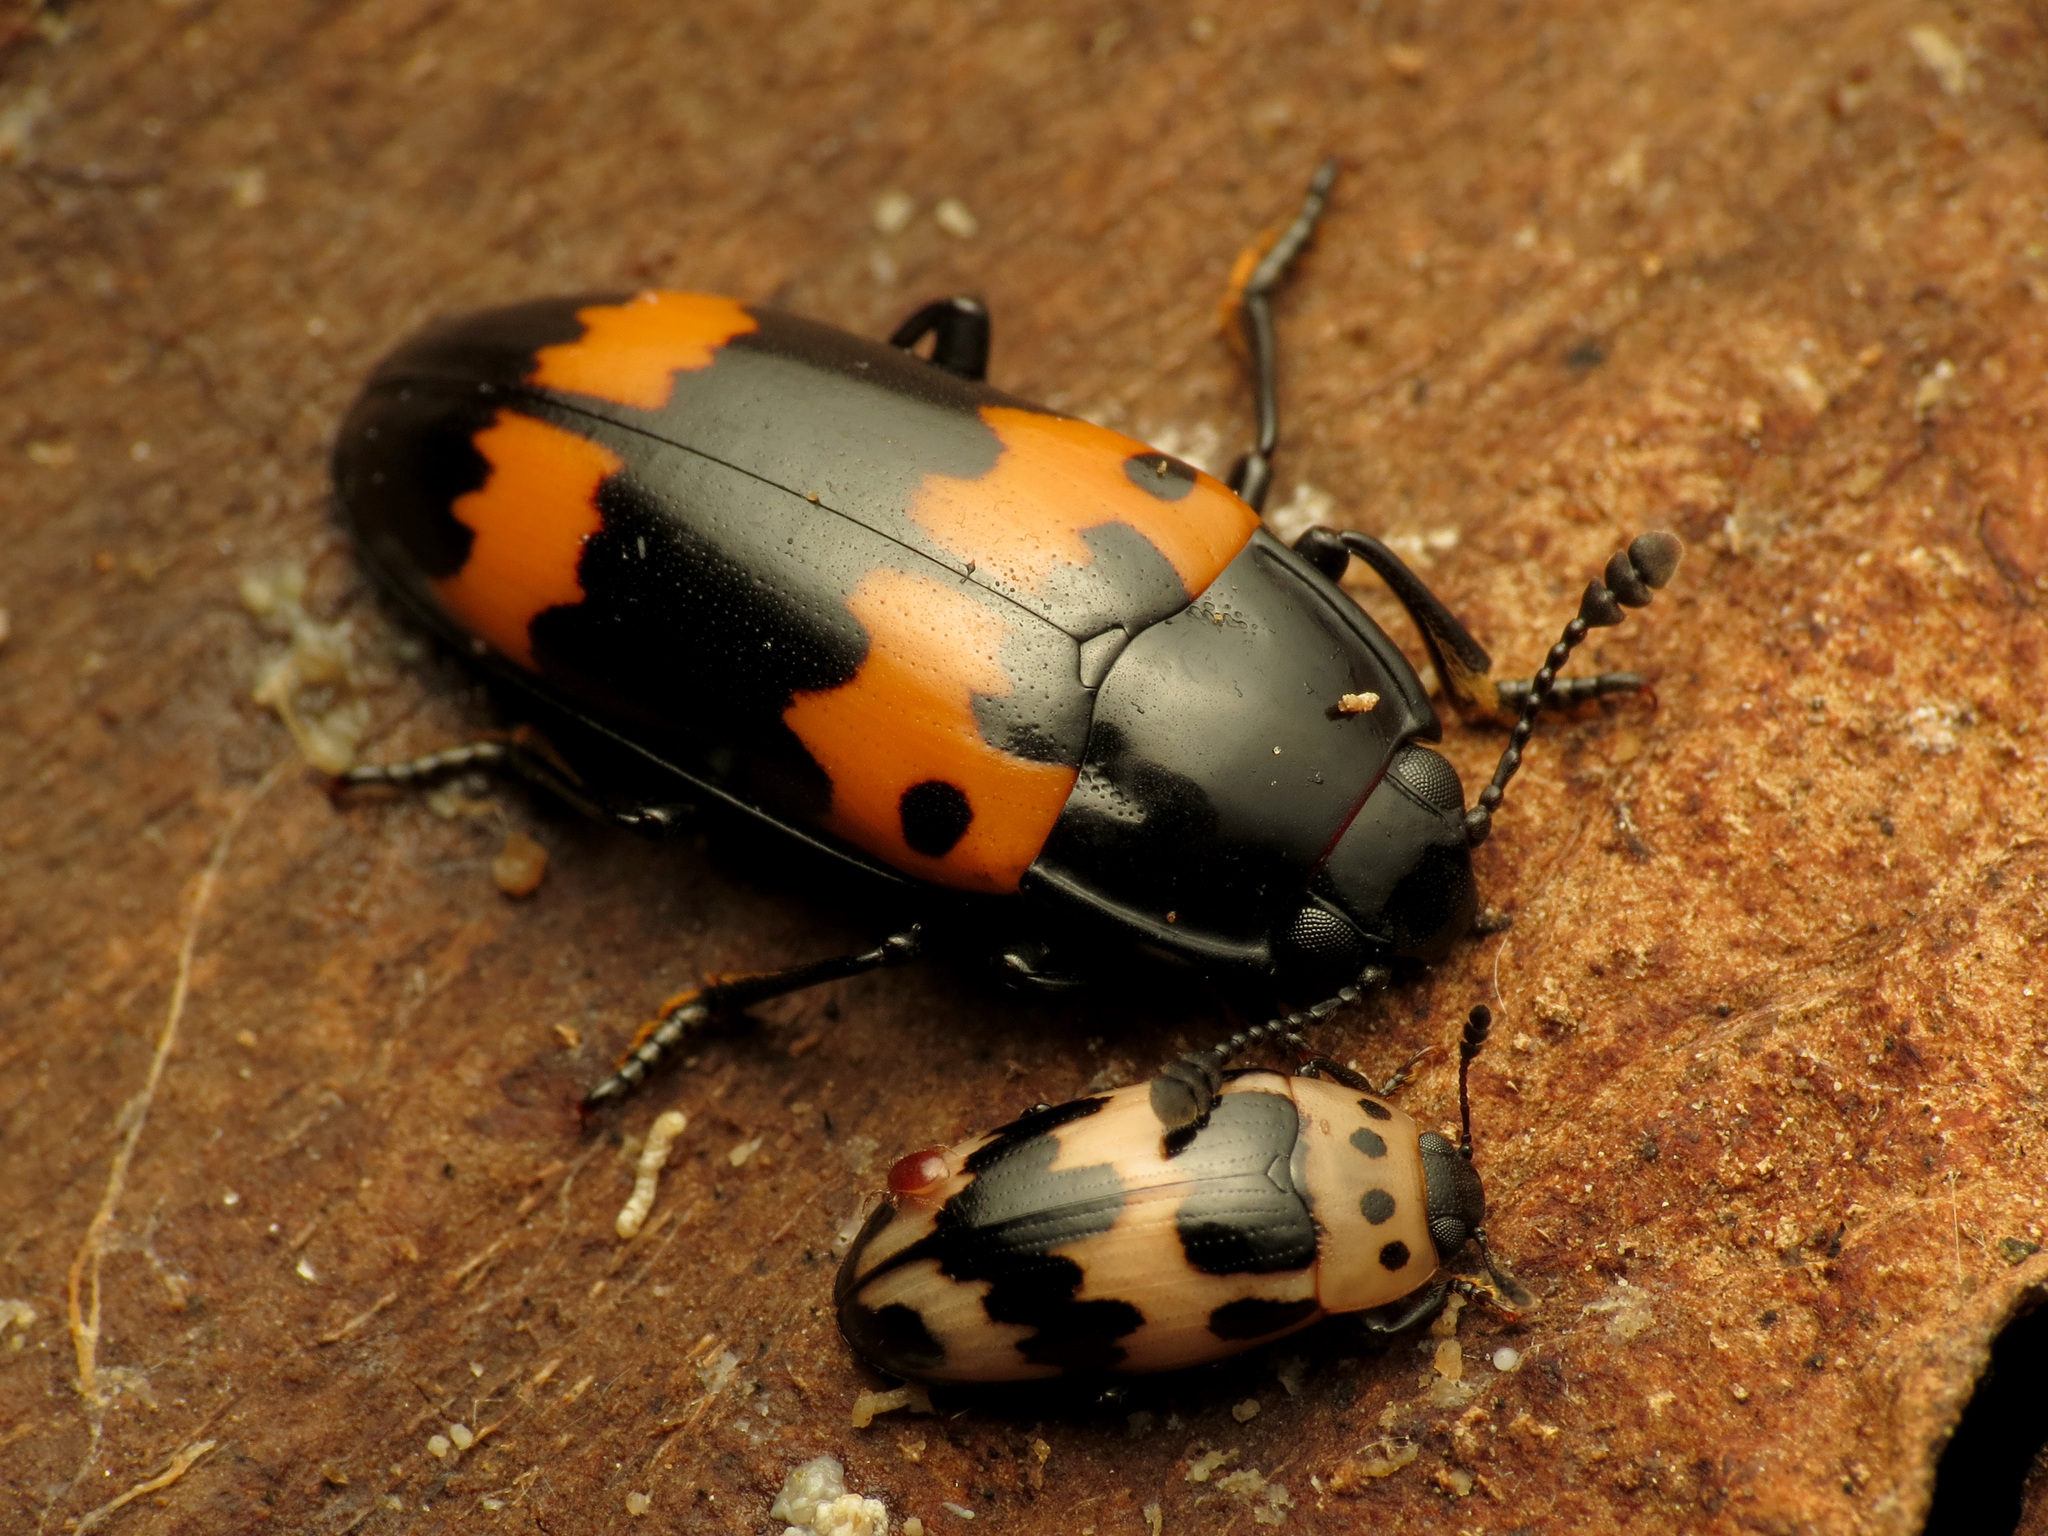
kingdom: Animalia
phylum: Arthropoda
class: Insecta
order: Coleoptera
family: Erotylidae
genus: Megalodacne
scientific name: Megalodacne fasciata
